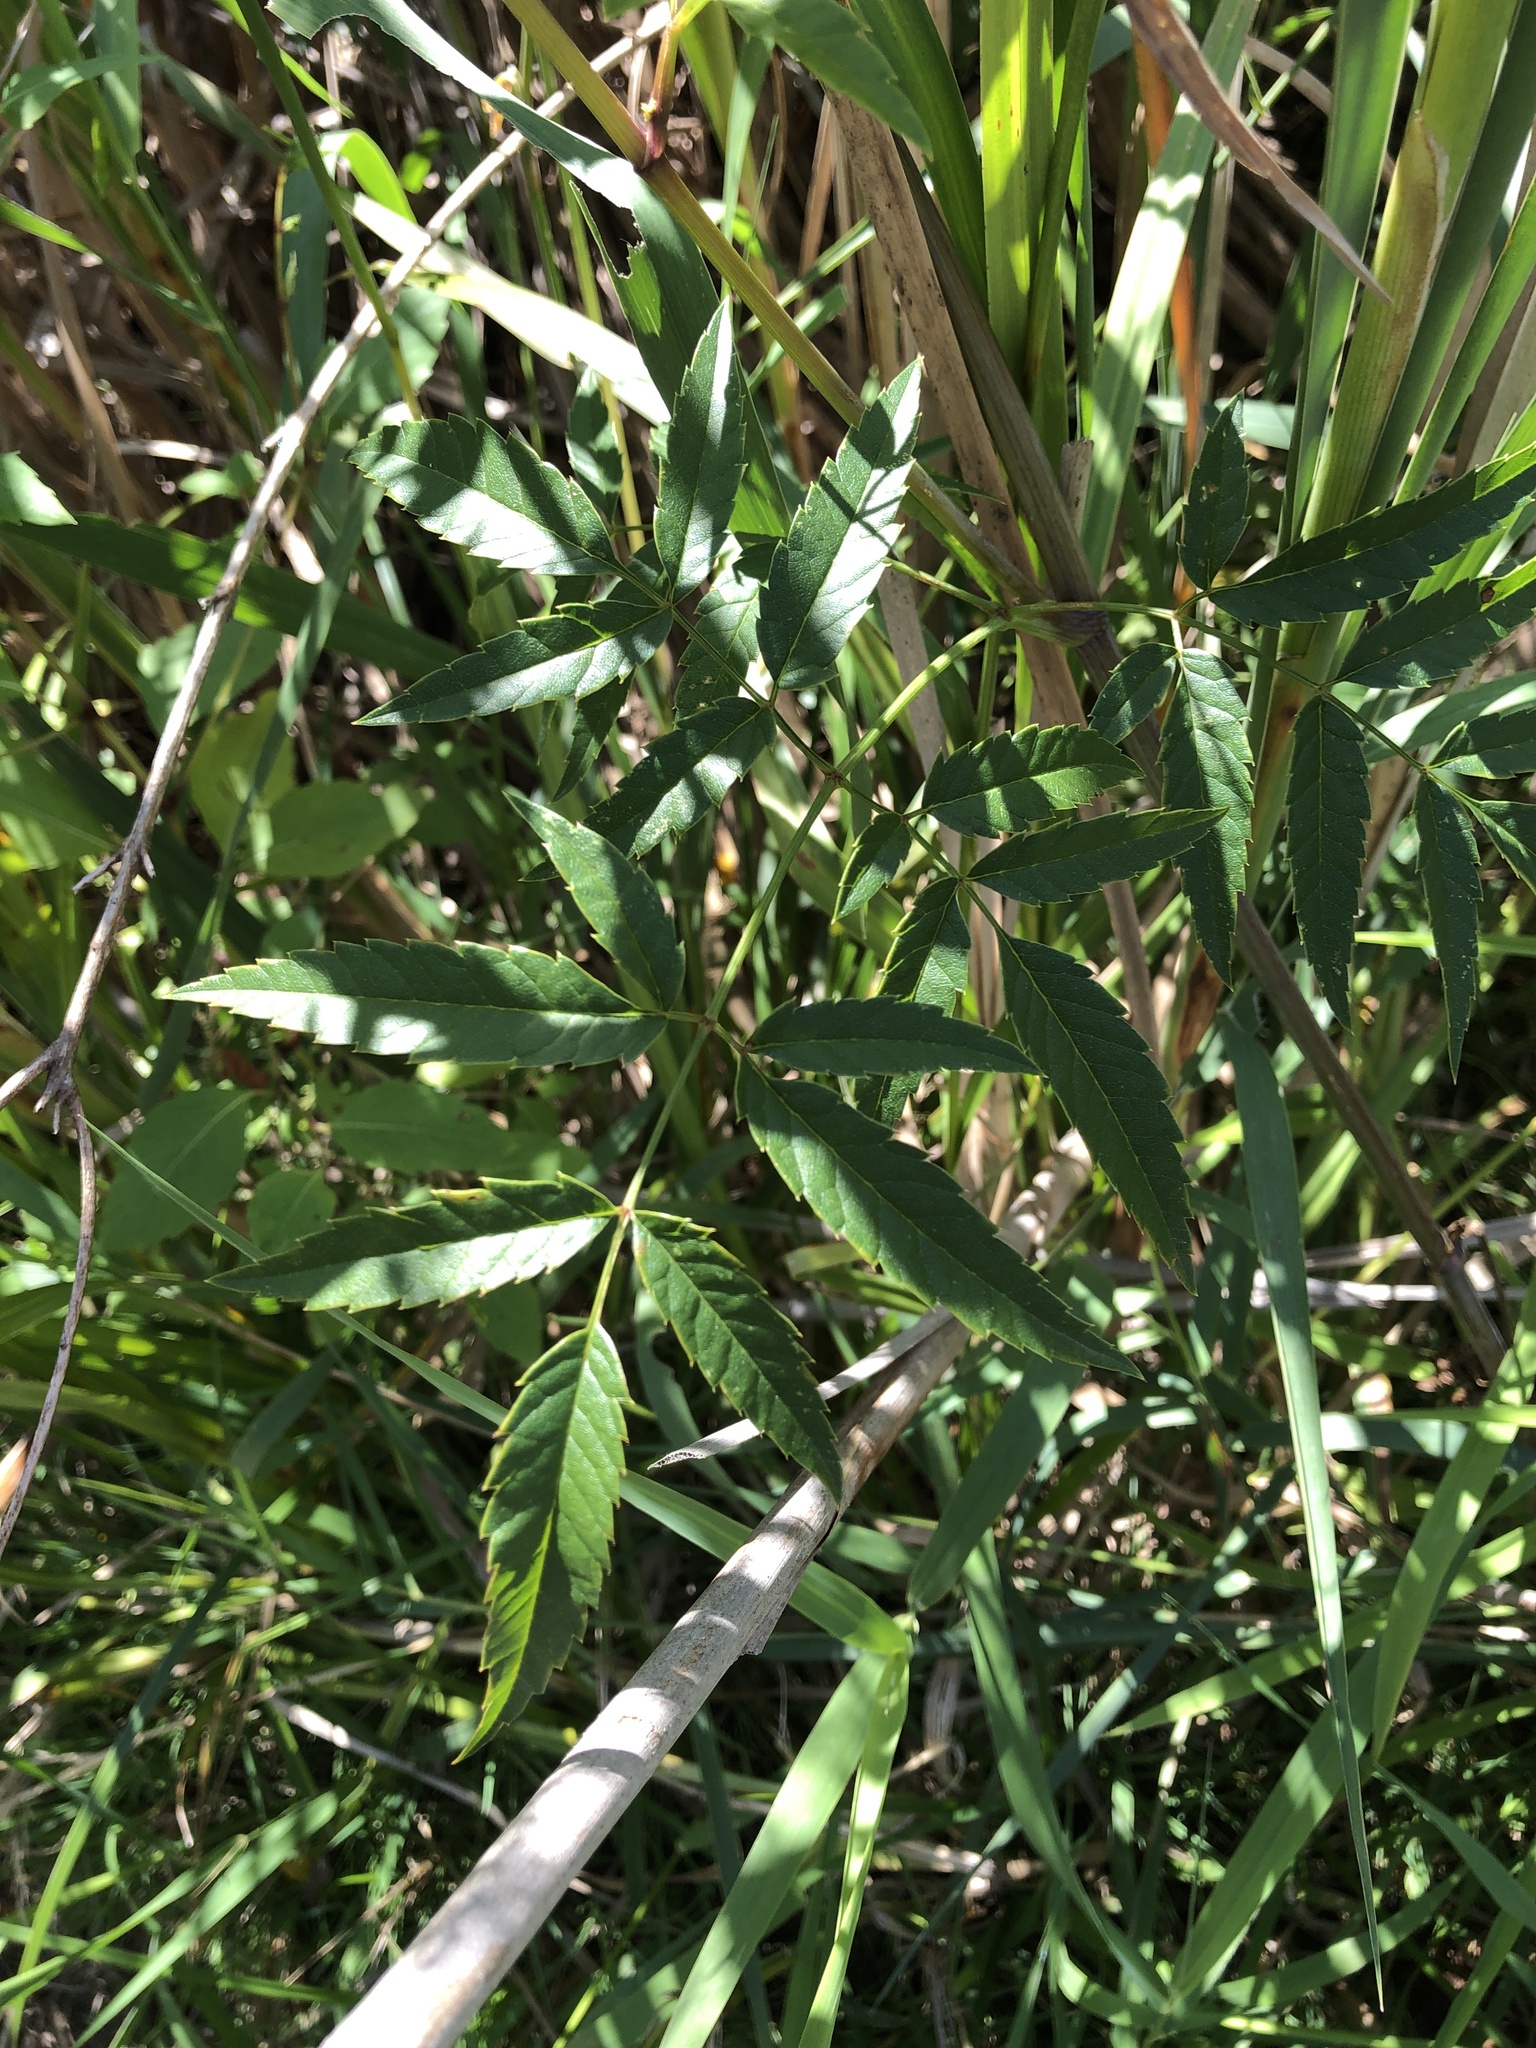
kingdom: Plantae
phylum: Tracheophyta
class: Magnoliopsida
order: Apiales
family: Apiaceae
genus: Cicuta
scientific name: Cicuta maculata
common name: Spotted cowbane
